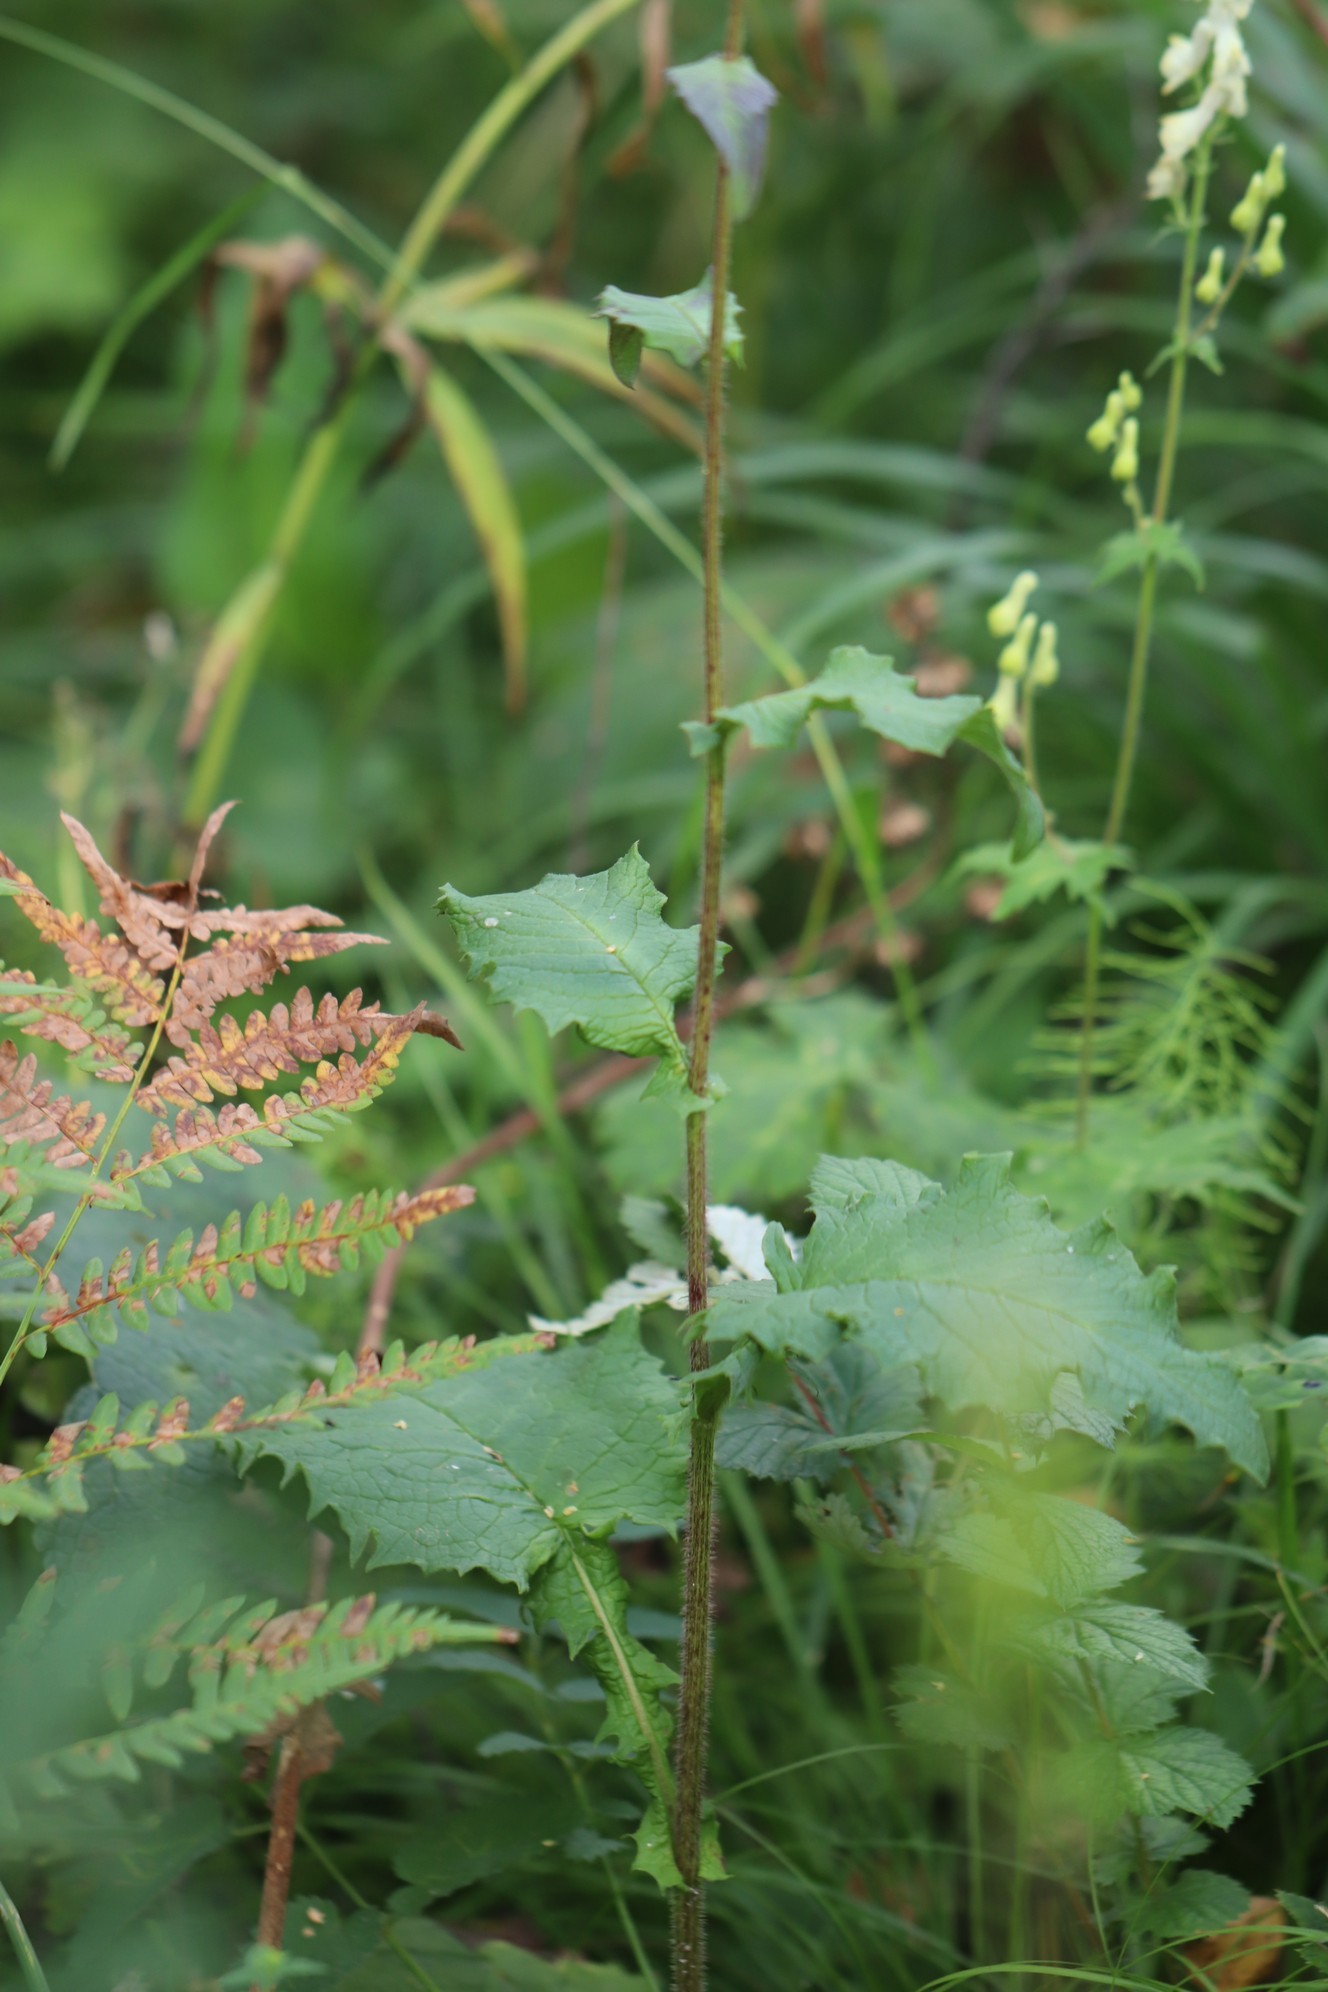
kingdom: Plantae
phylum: Tracheophyta
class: Magnoliopsida
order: Asterales
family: Asteraceae
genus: Crepis
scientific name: Crepis sibirica
